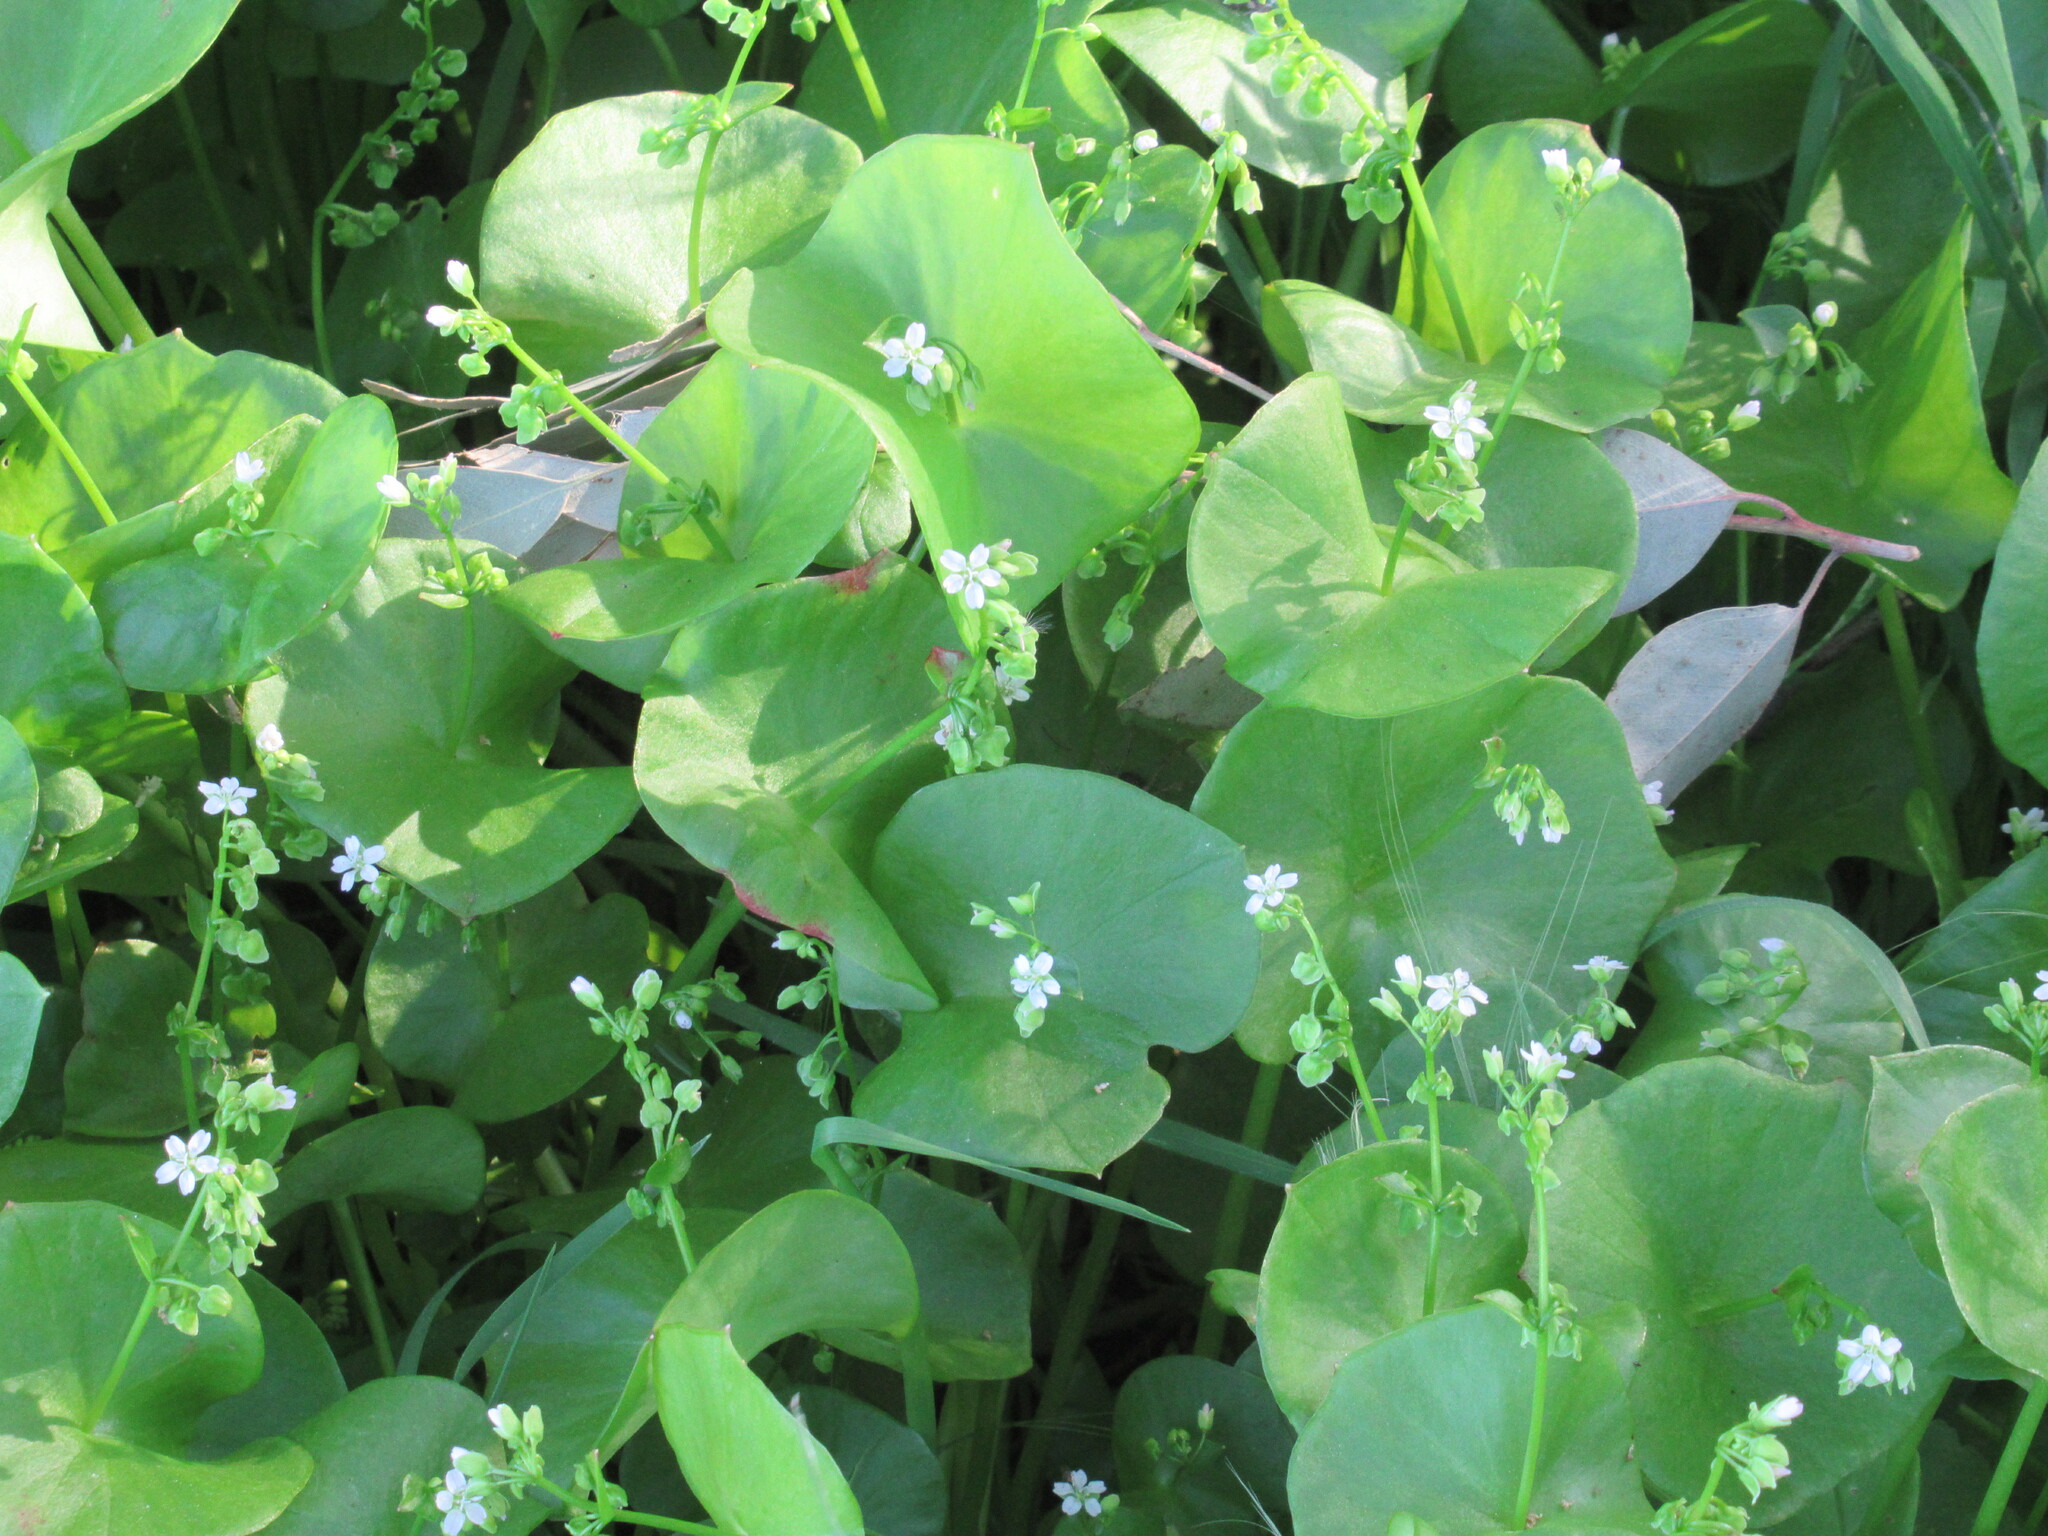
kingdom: Plantae
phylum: Tracheophyta
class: Magnoliopsida
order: Caryophyllales
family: Montiaceae
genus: Claytonia
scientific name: Claytonia perfoliata
